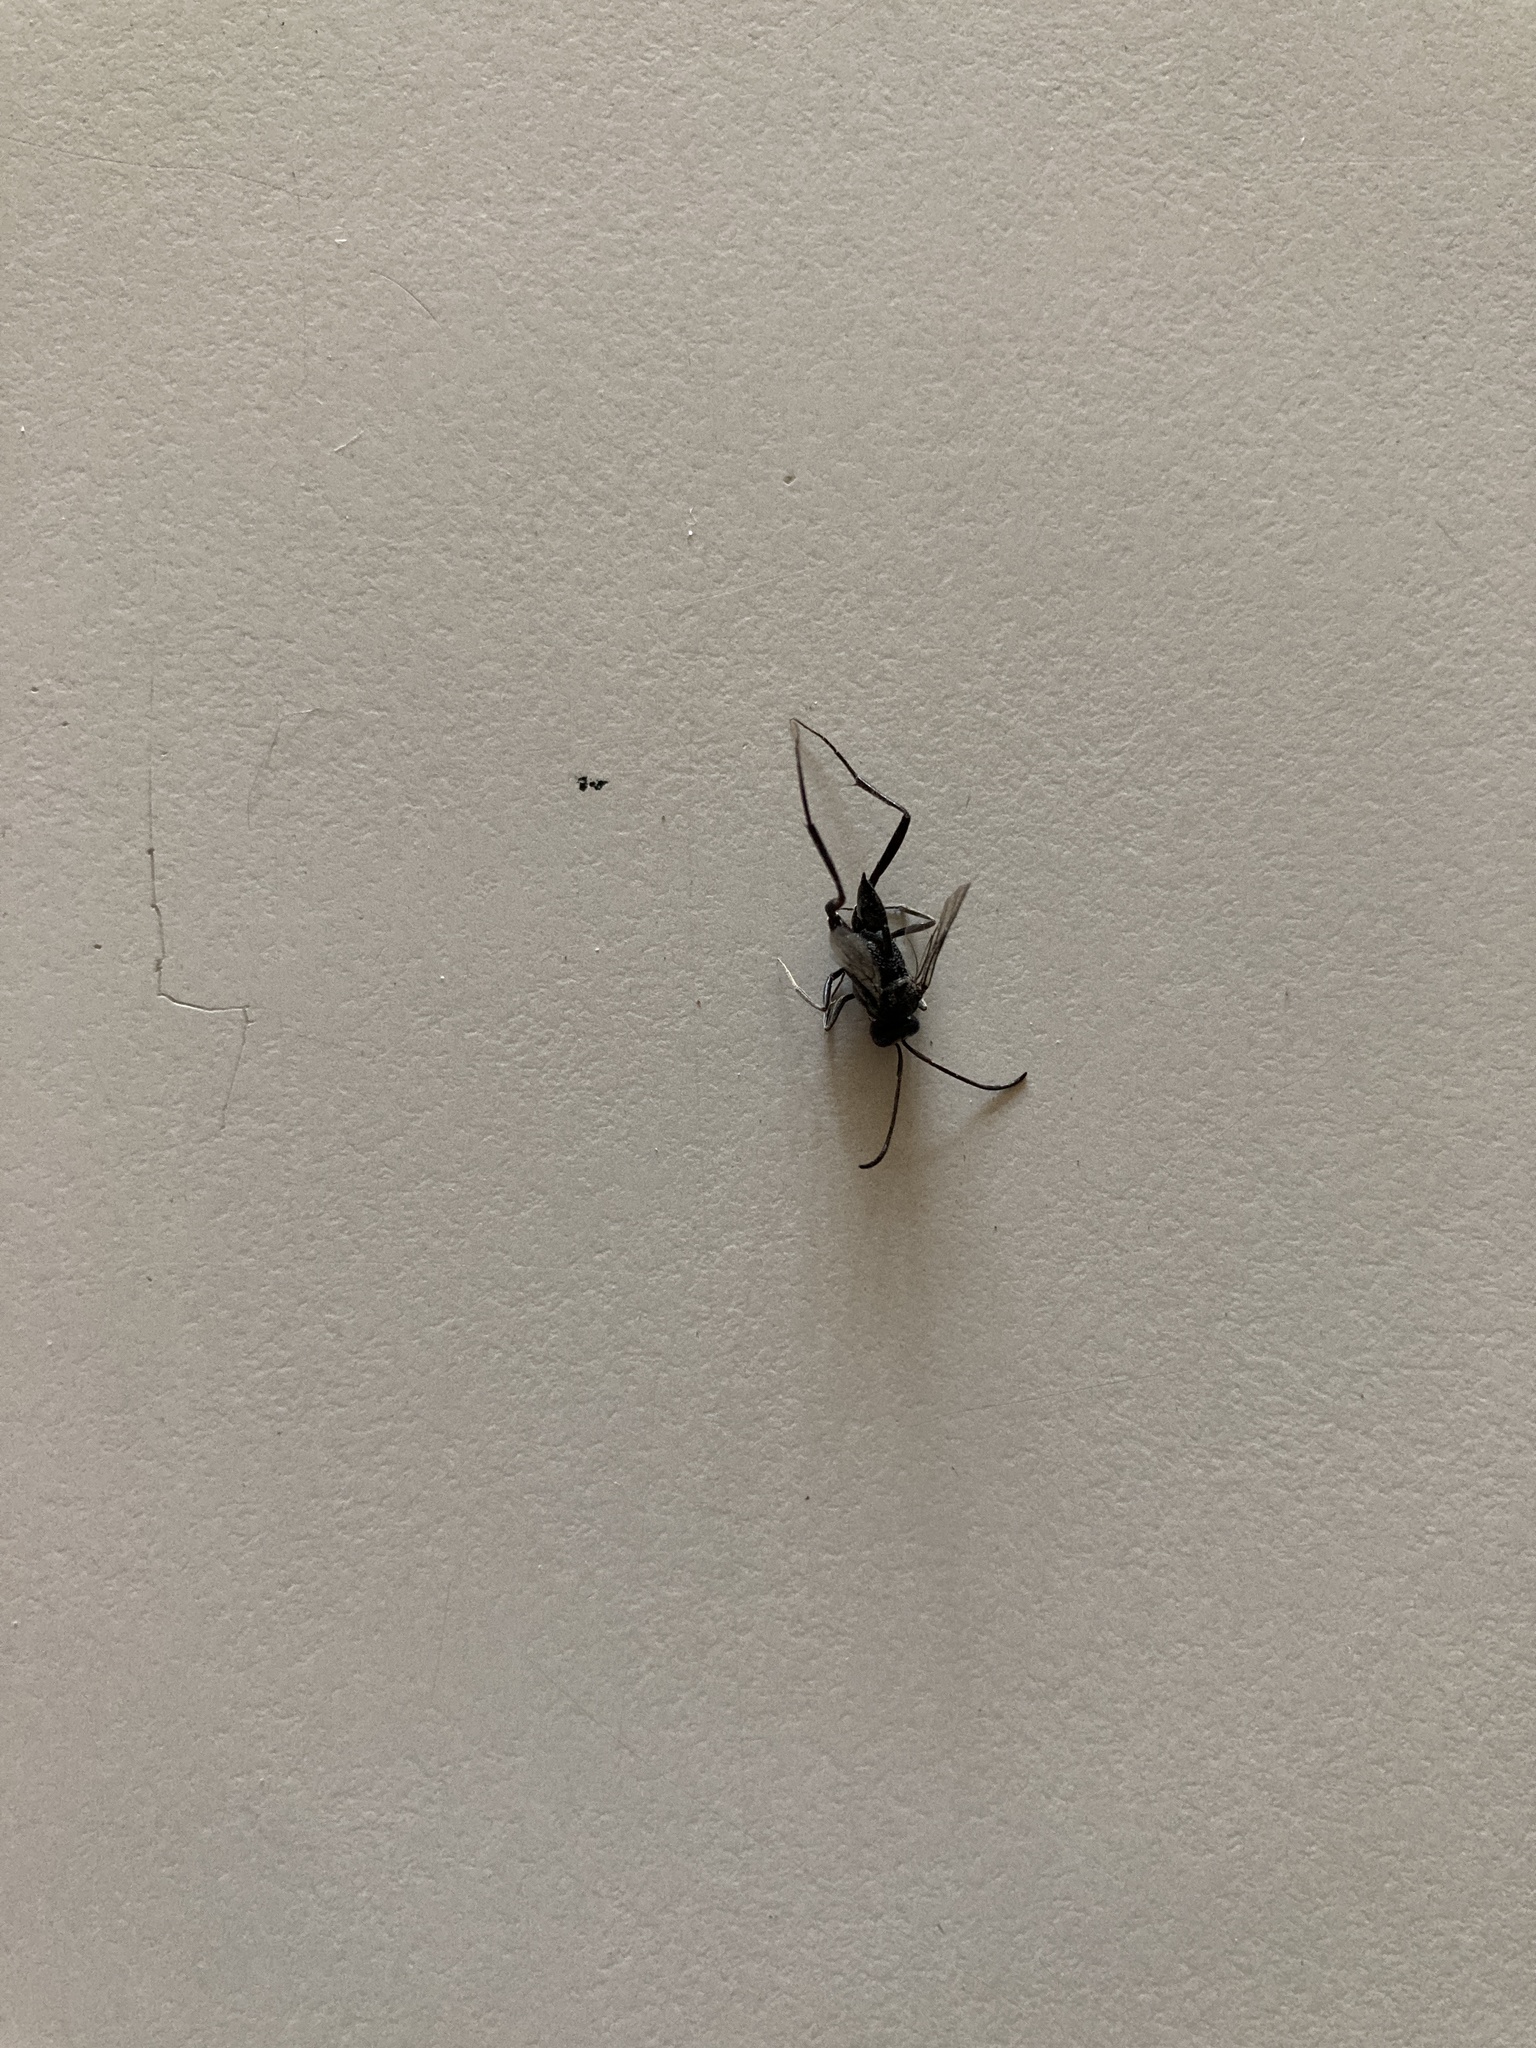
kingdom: Animalia
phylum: Arthropoda
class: Insecta
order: Hymenoptera
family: Evaniidae
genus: Evania
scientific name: Evania appendigaster
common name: Ensign wasp
